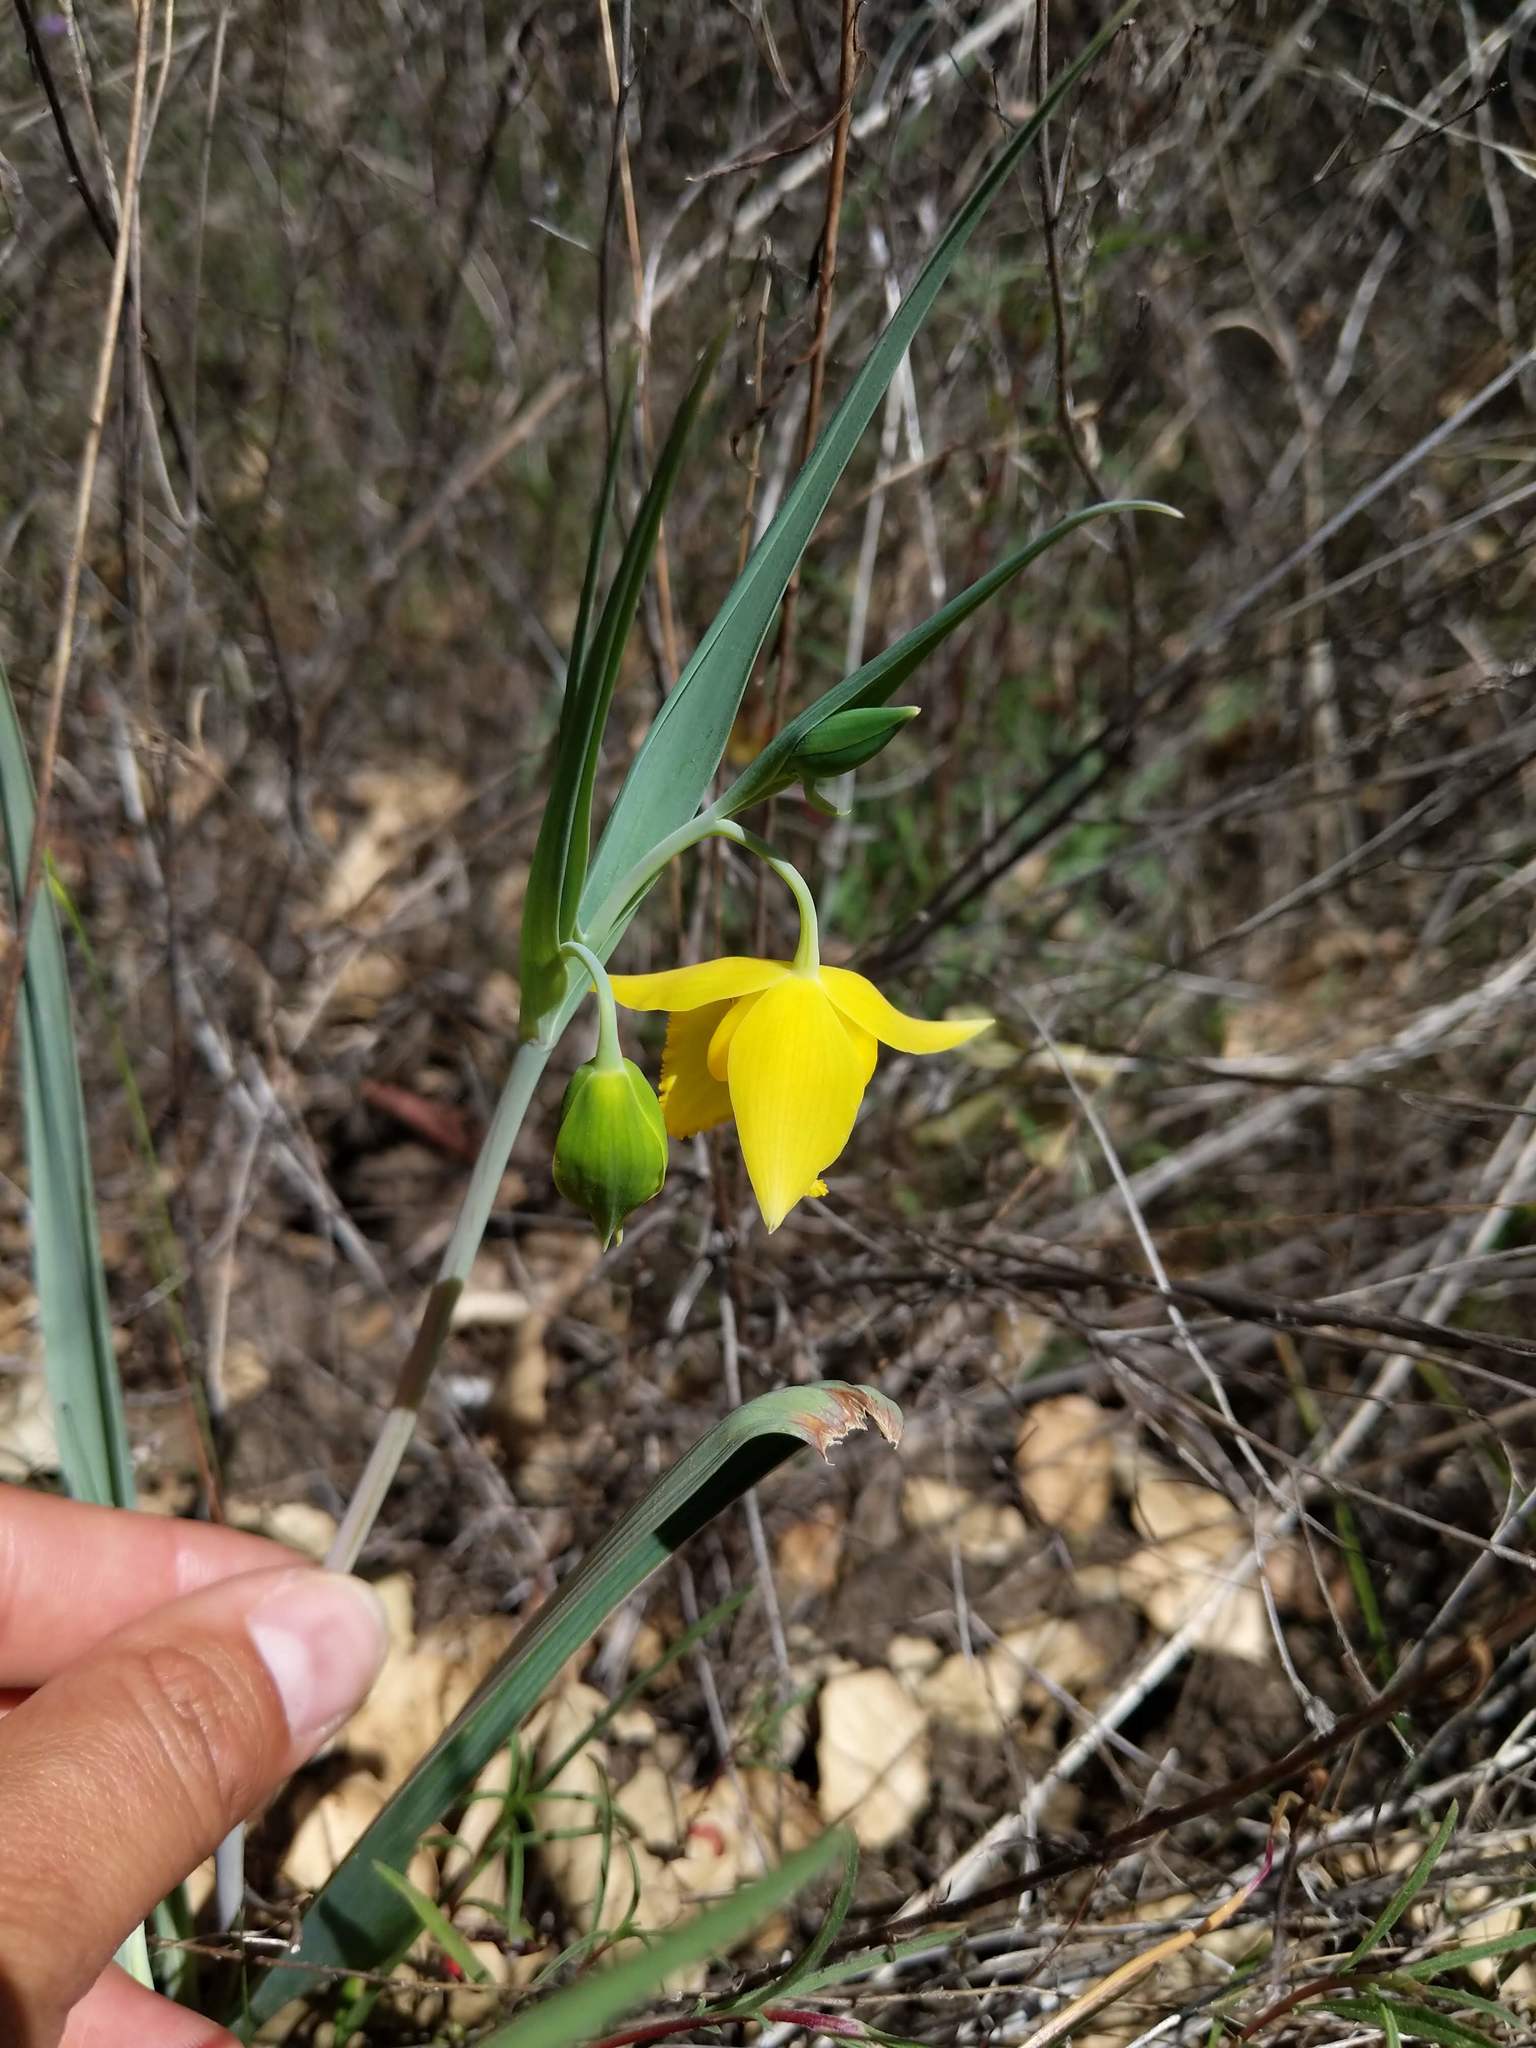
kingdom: Plantae
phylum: Tracheophyta
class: Liliopsida
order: Liliales
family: Liliaceae
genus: Calochortus
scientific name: Calochortus amabilis
